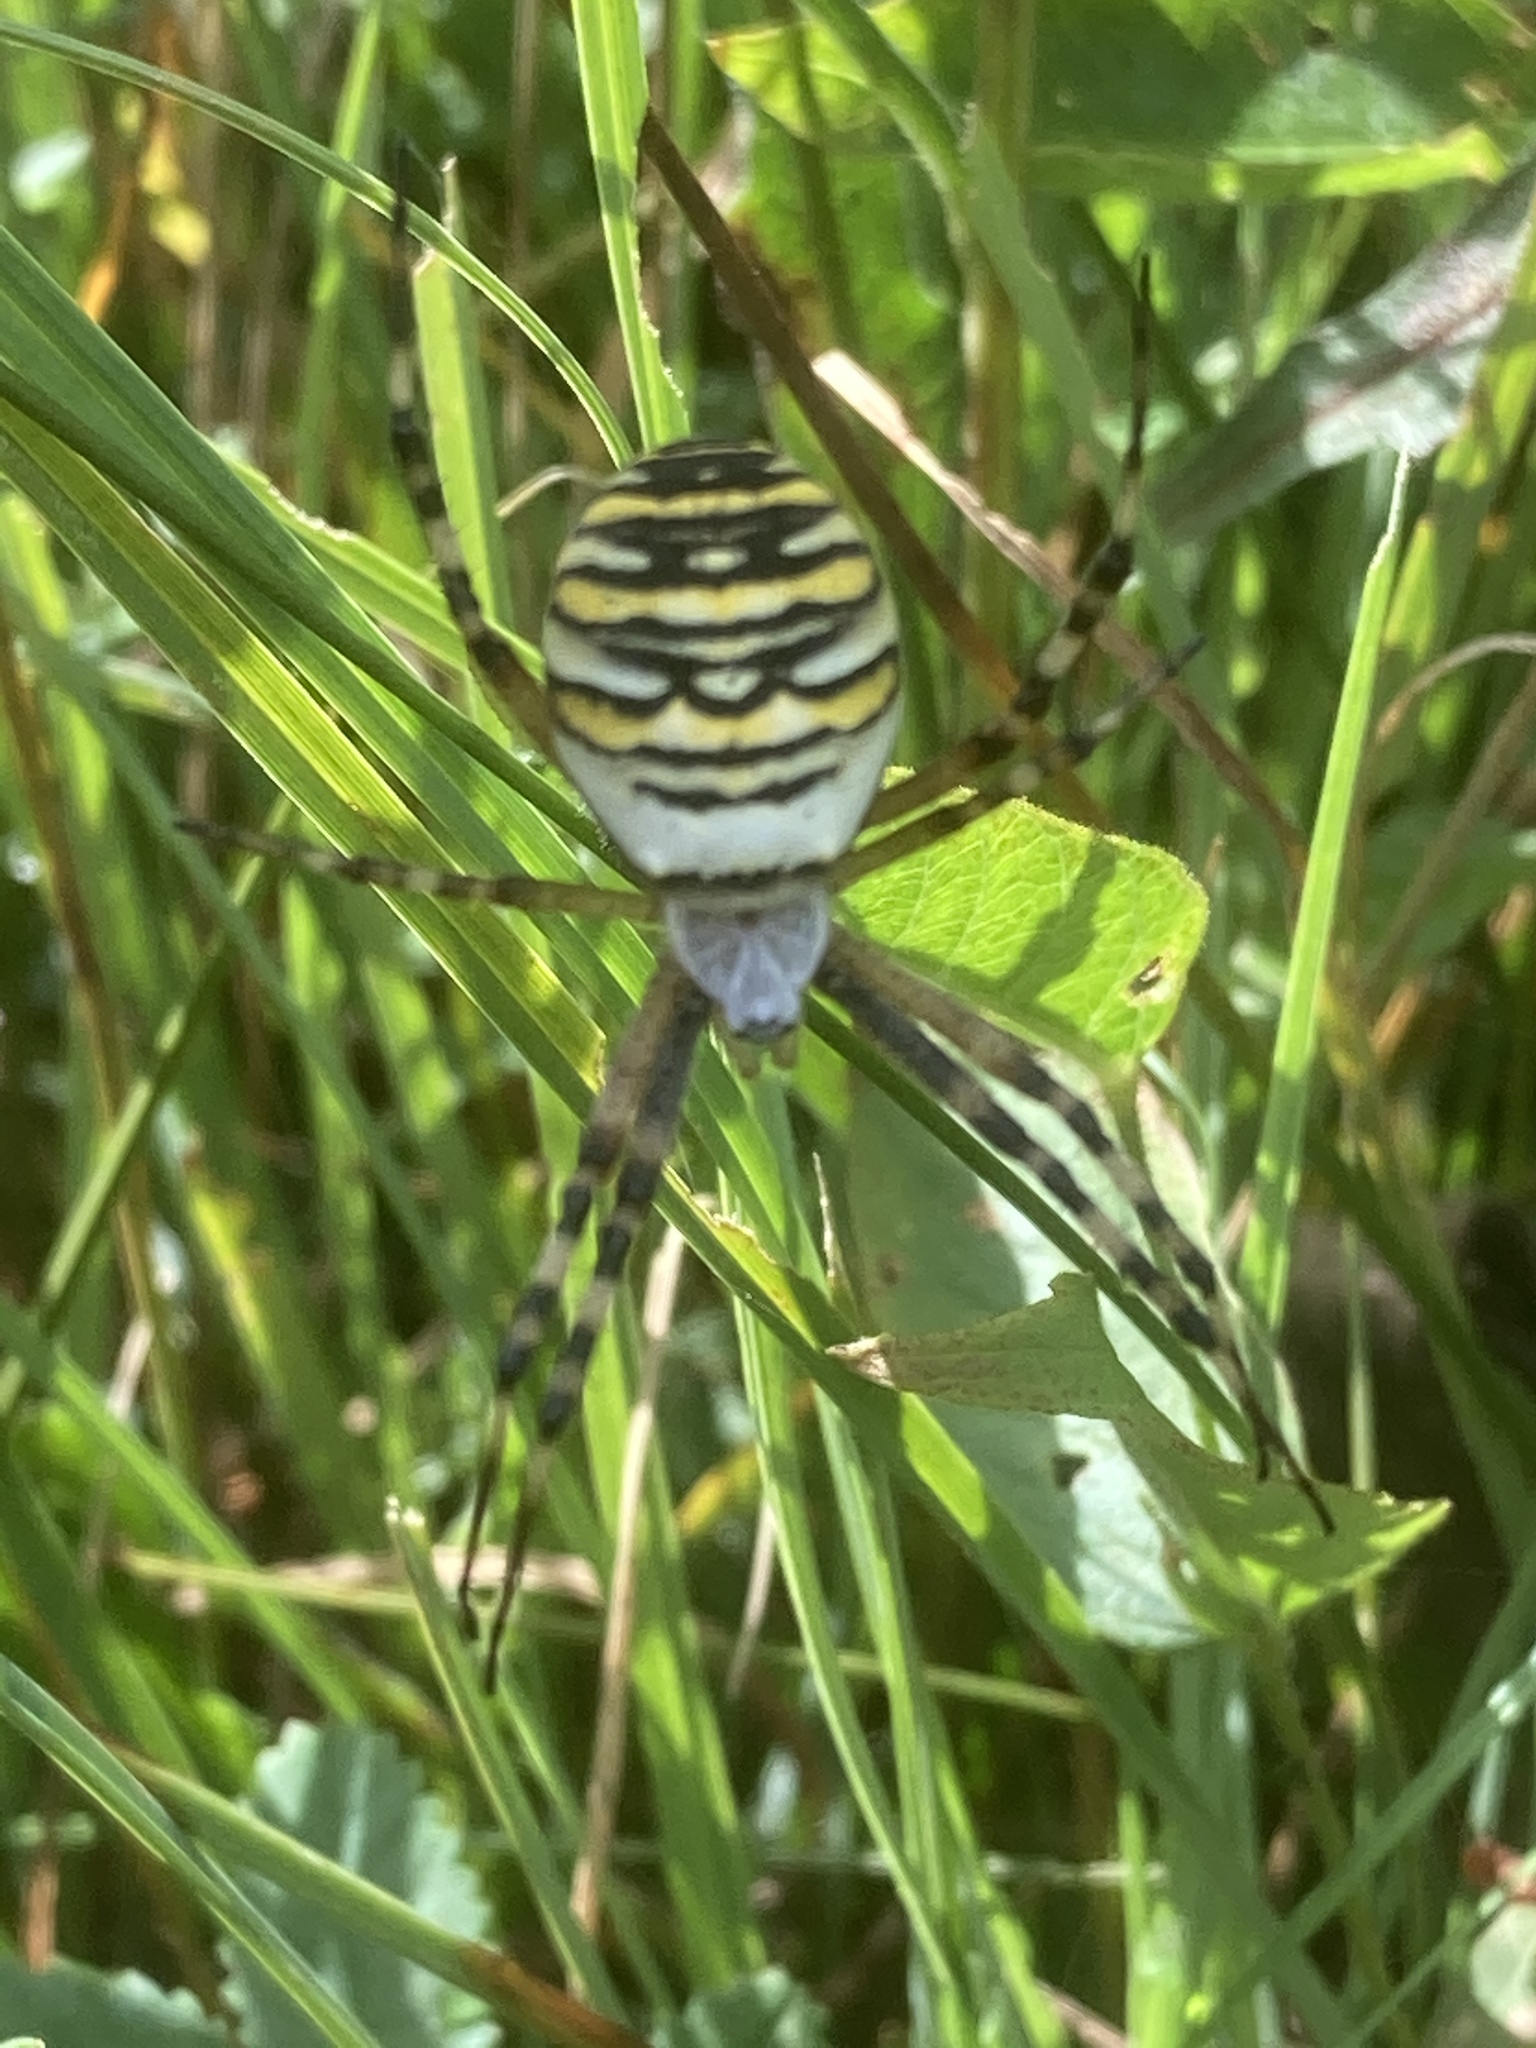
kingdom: Animalia
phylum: Arthropoda
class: Arachnida
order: Araneae
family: Araneidae
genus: Argiope
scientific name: Argiope bruennichi
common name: Wasp spider
